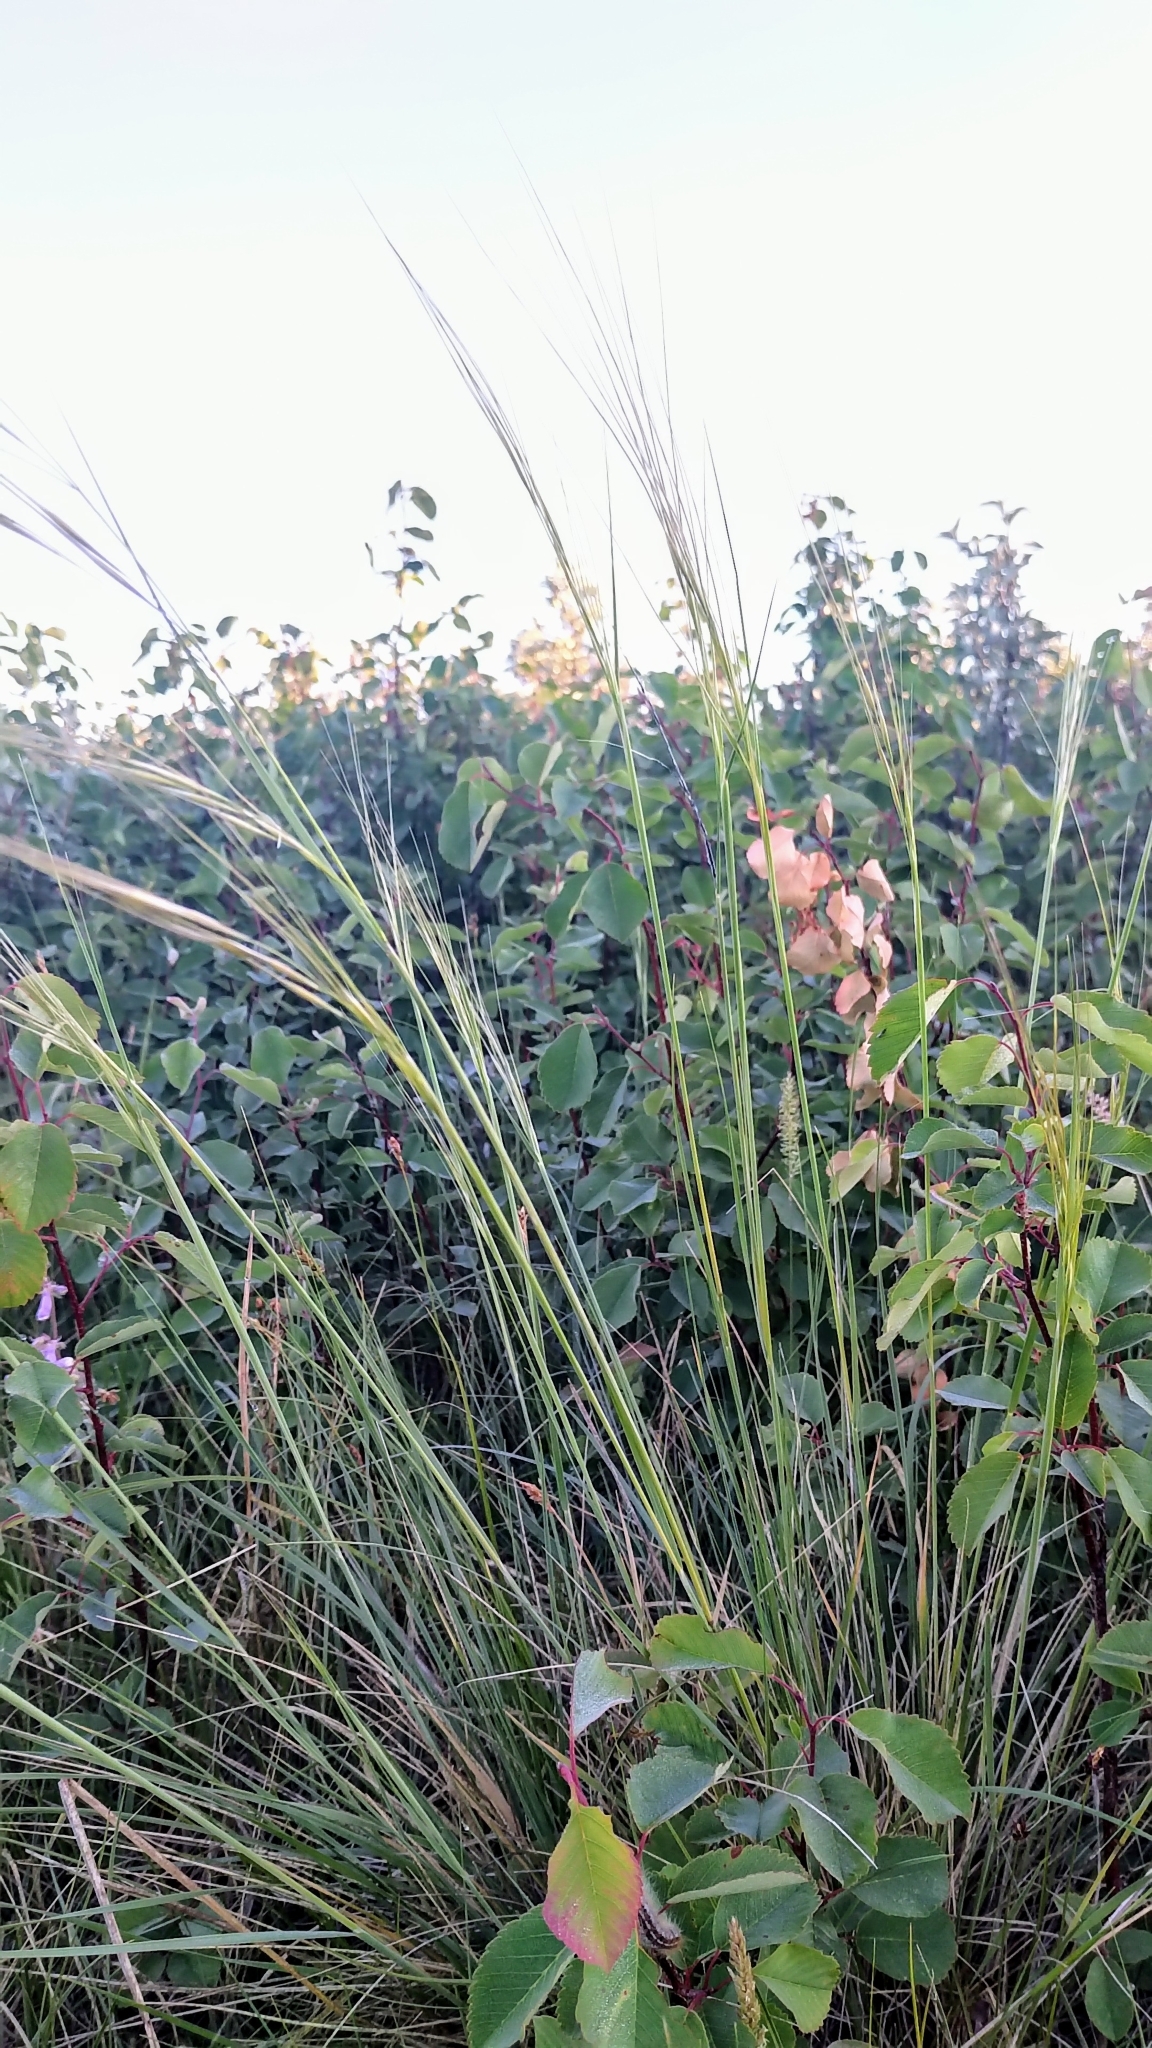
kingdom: Plantae
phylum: Tracheophyta
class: Liliopsida
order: Poales
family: Poaceae
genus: Hesperostipa
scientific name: Hesperostipa curtiseta
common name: Canada needle-and-thread grass
